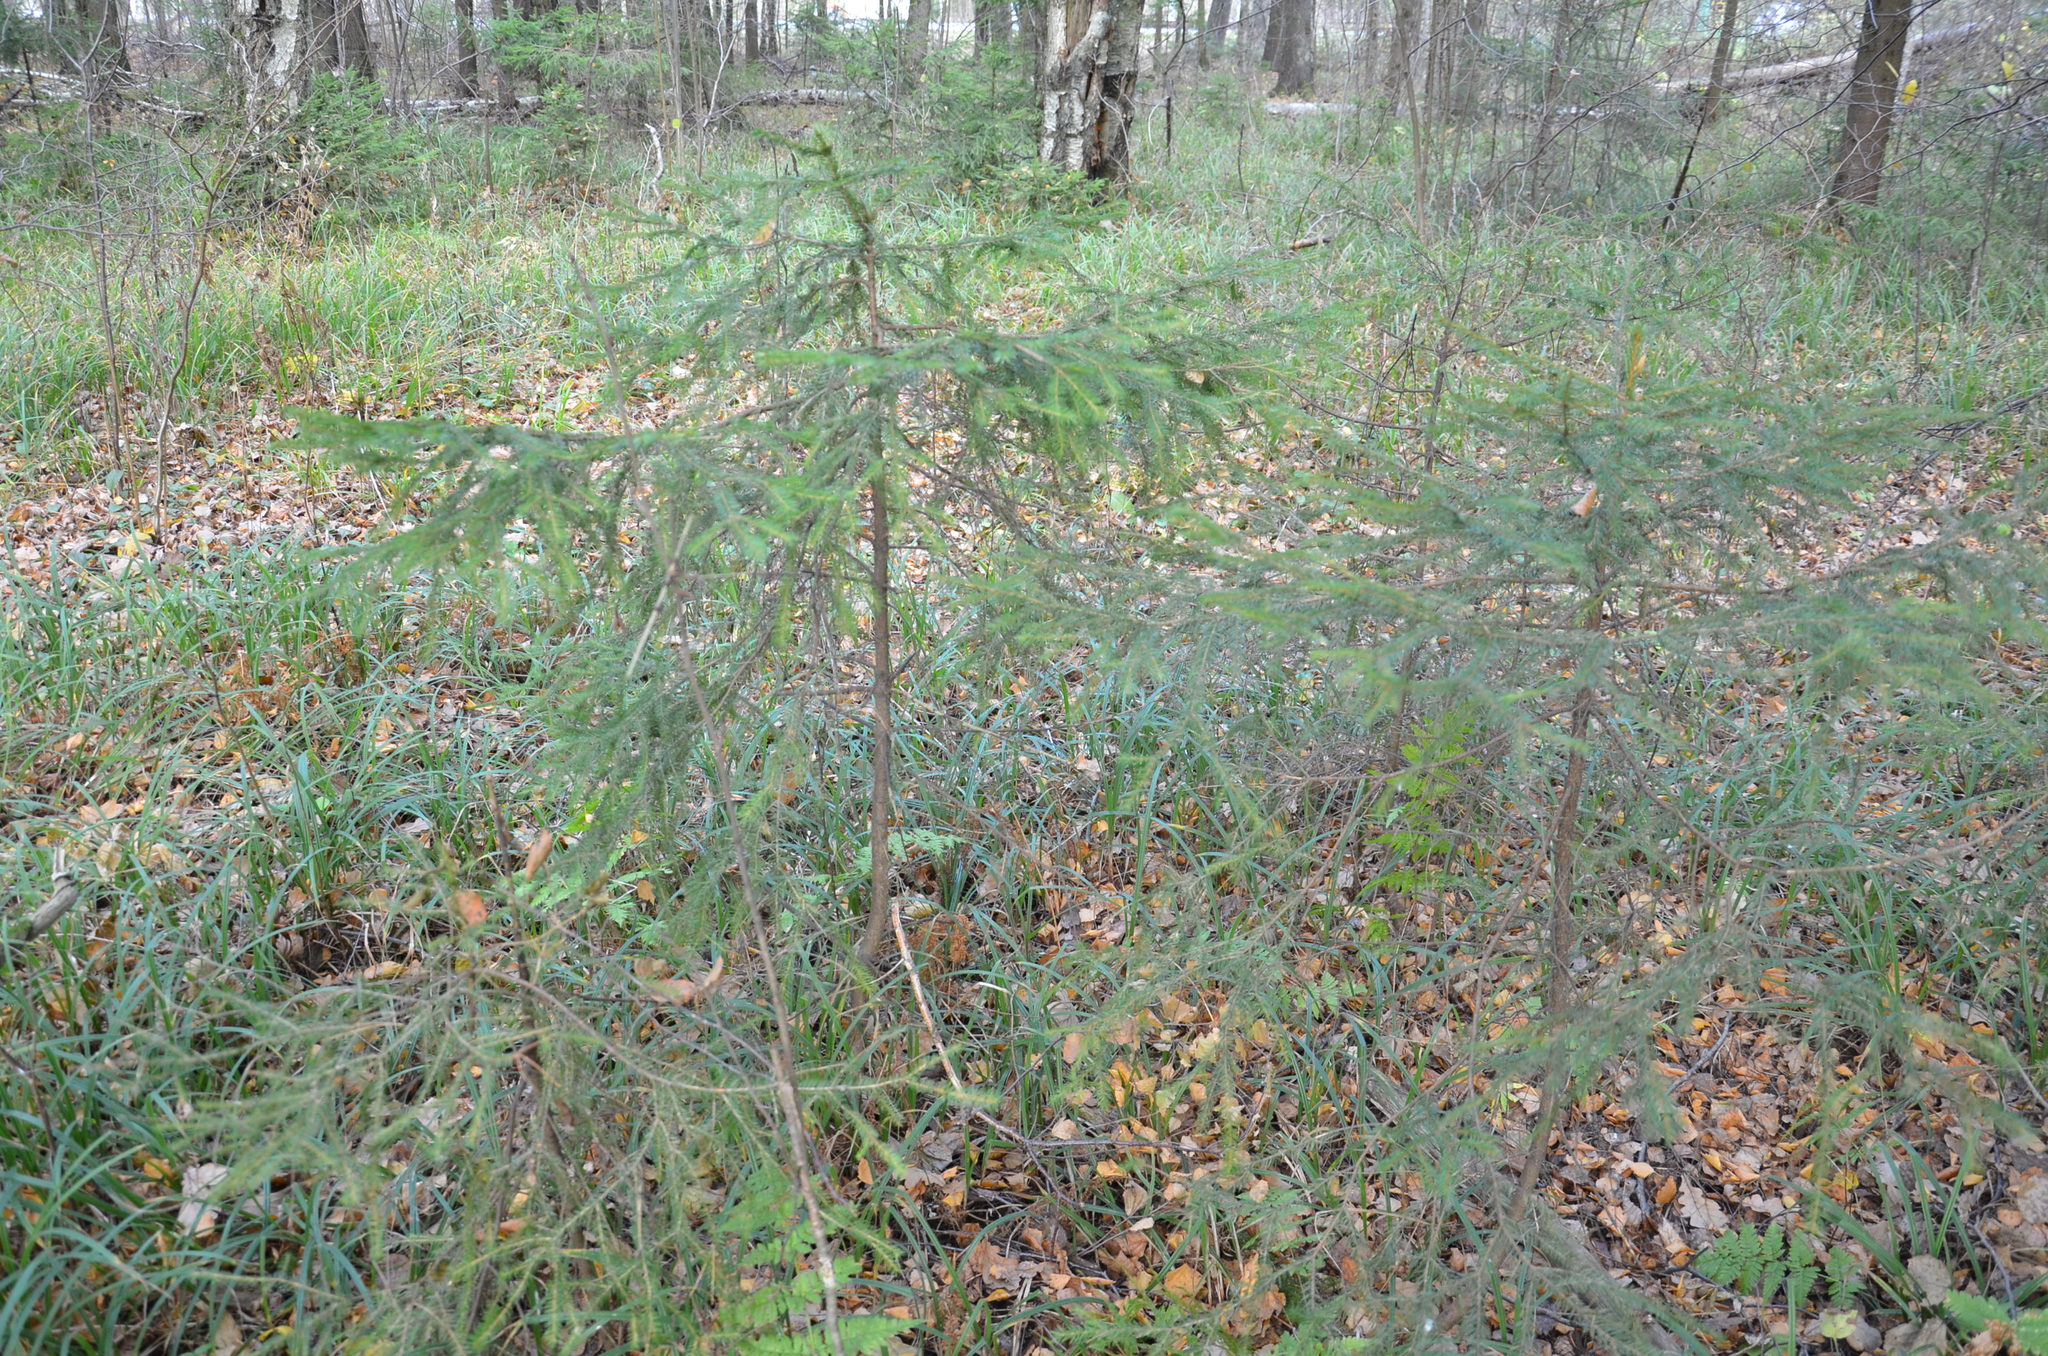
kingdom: Plantae
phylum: Tracheophyta
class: Pinopsida
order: Pinales
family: Pinaceae
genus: Picea
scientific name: Picea abies
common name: Norway spruce
